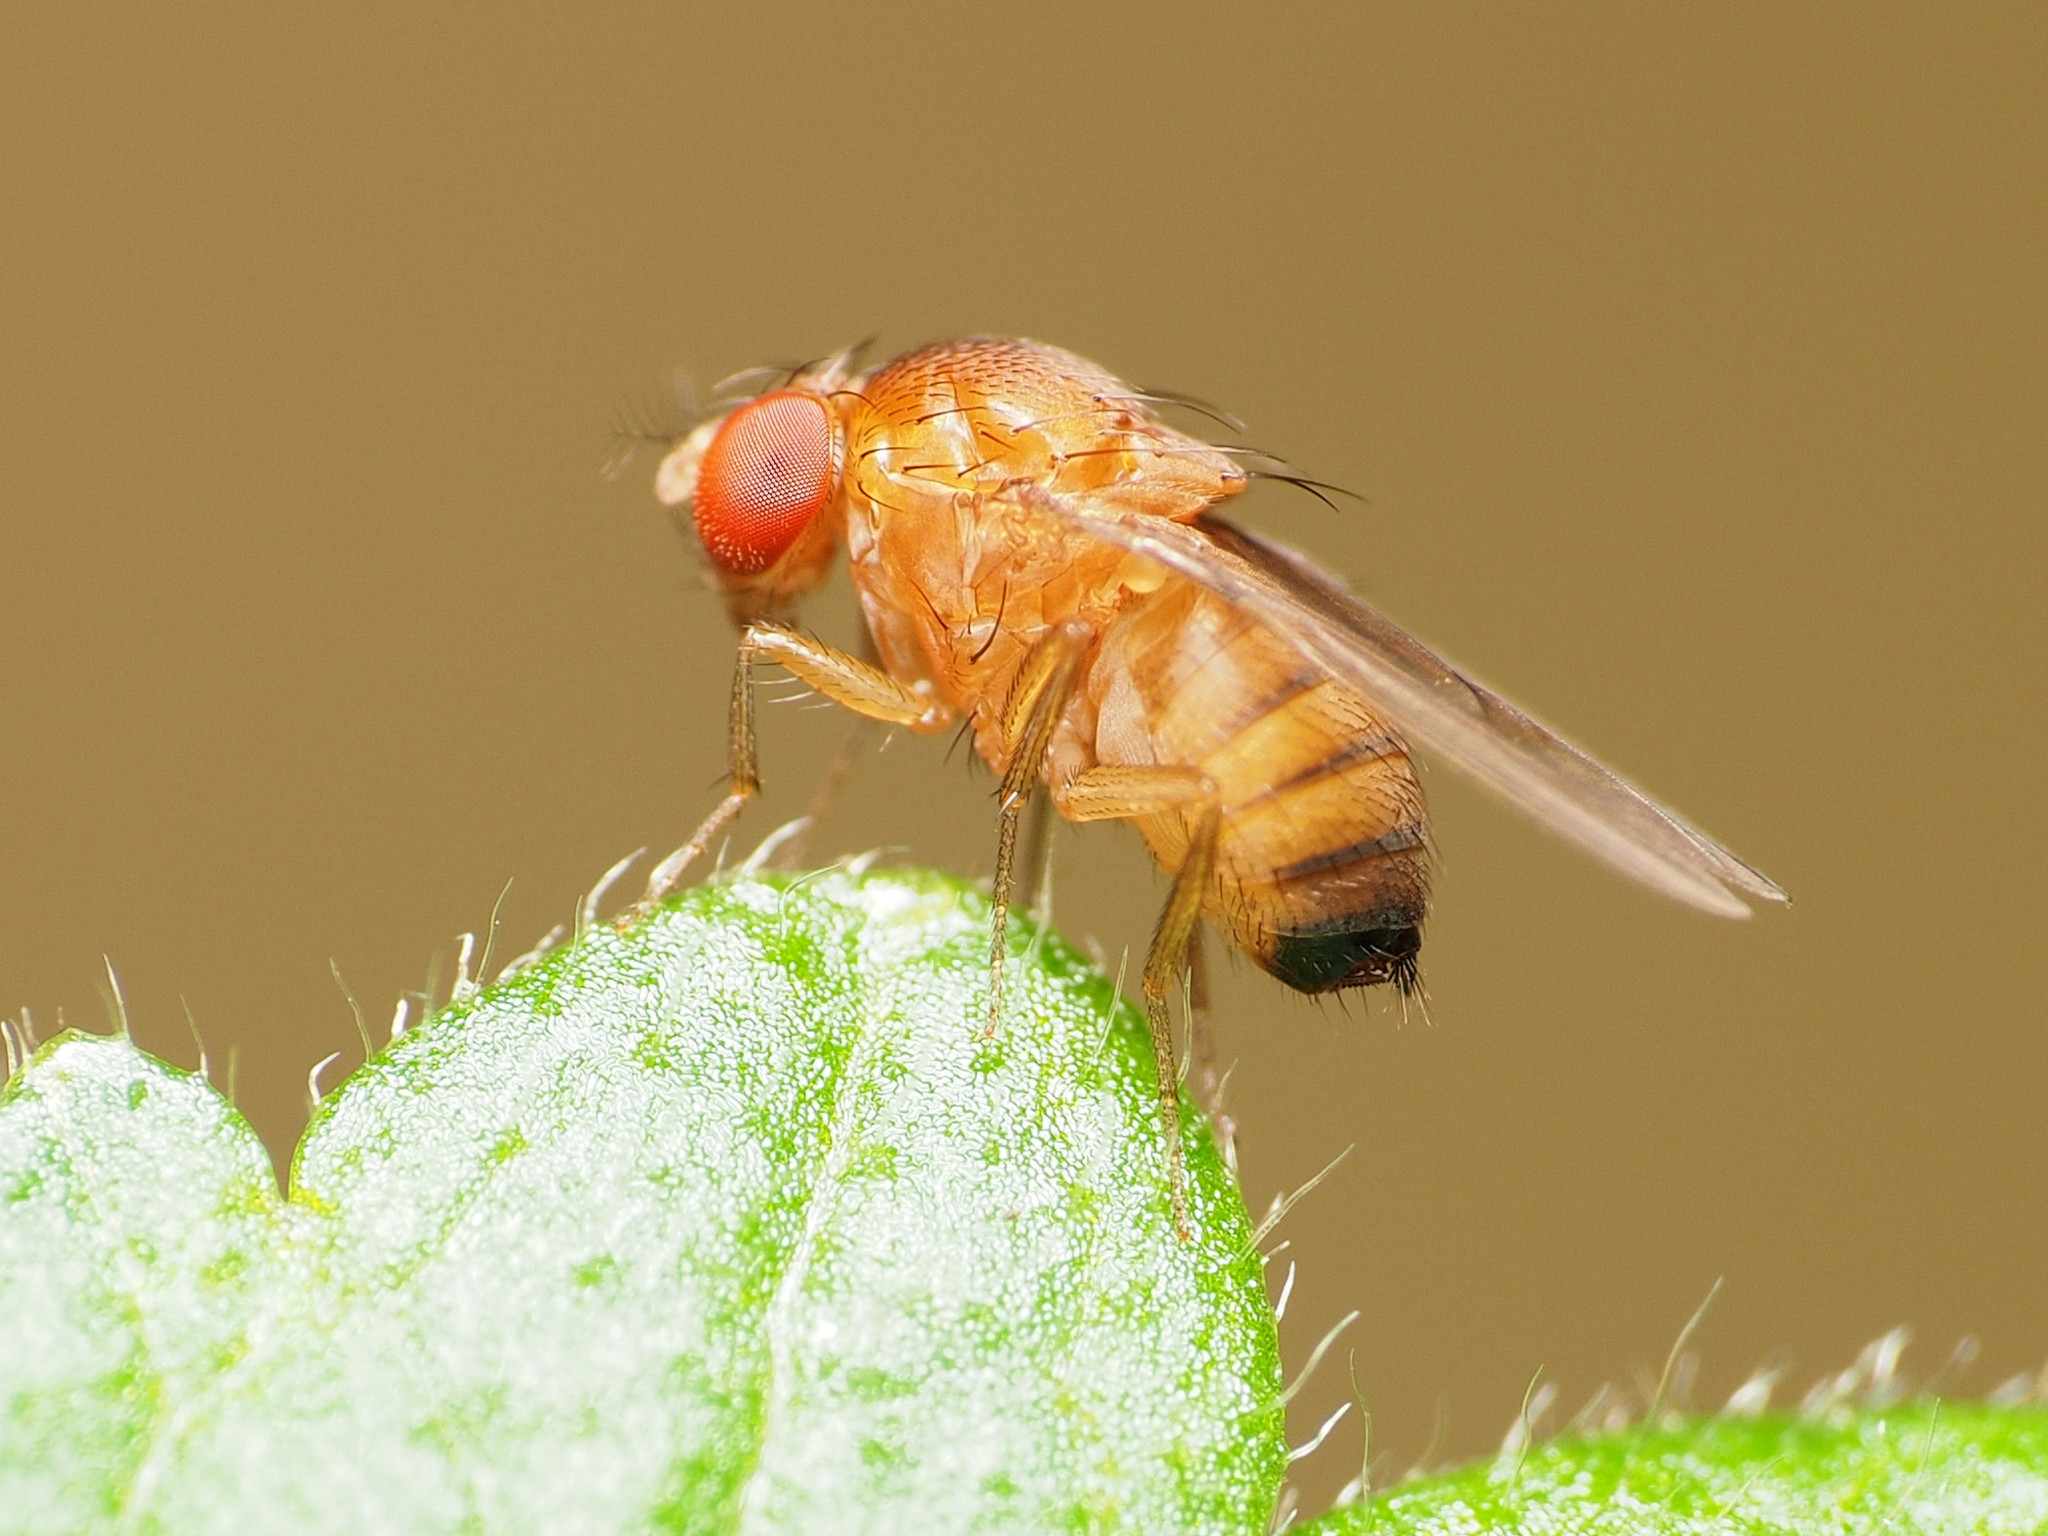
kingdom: Animalia
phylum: Arthropoda
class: Insecta
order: Diptera
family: Drosophilidae
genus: Drosophila
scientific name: Drosophila suzukii
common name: Spotted-wing drosophila
